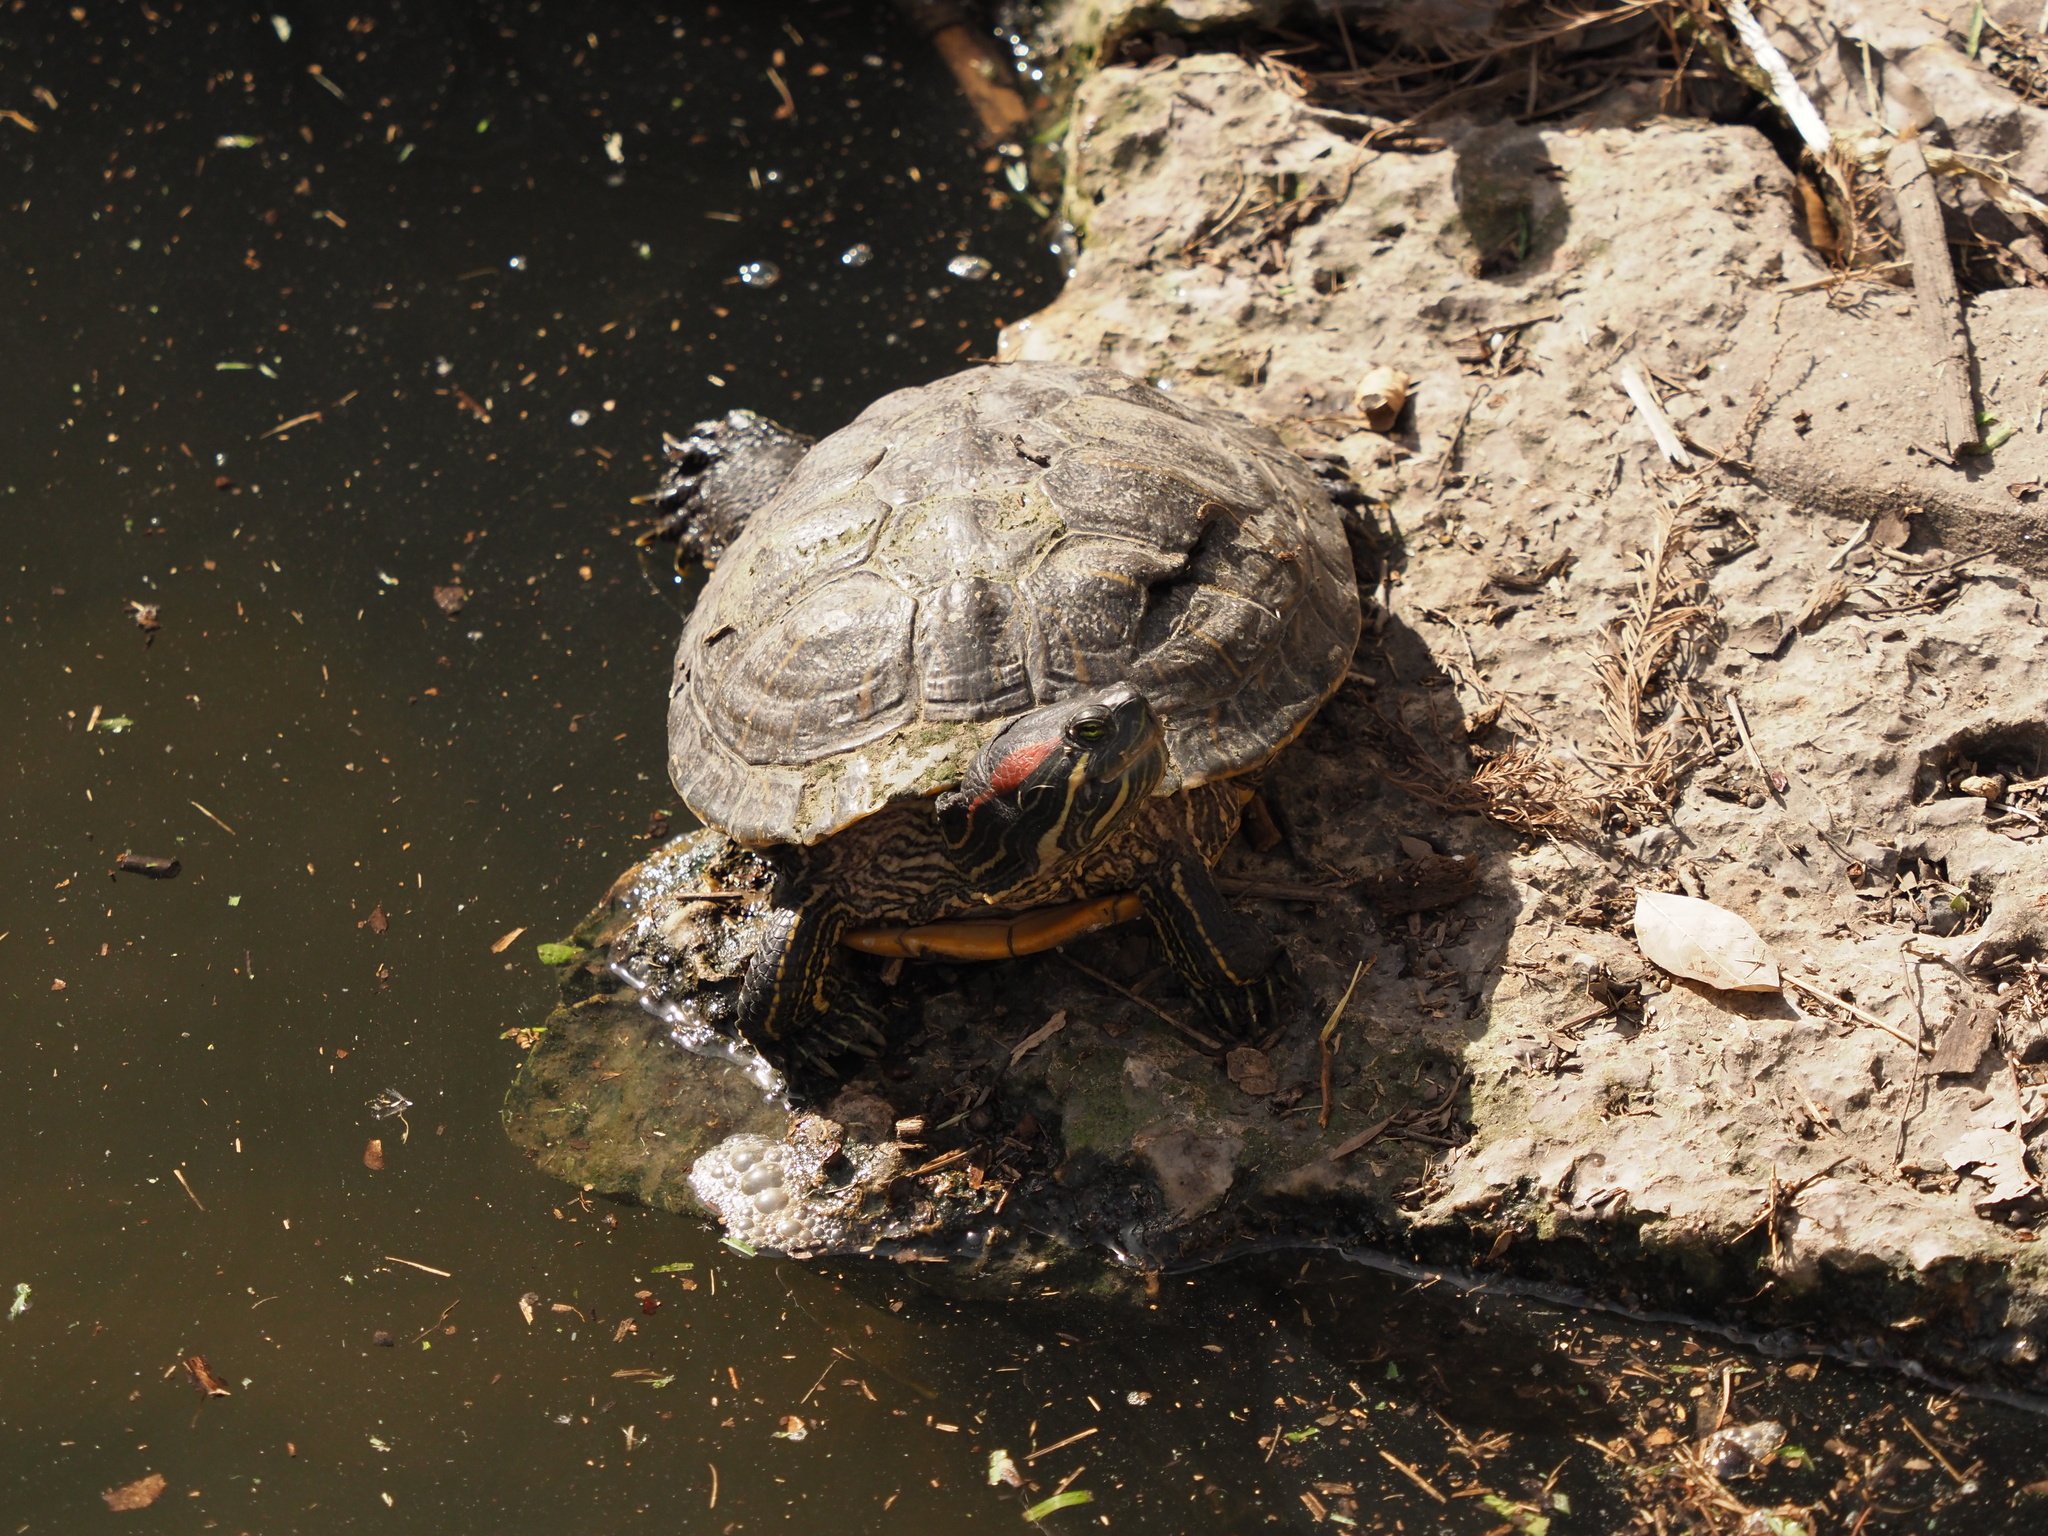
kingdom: Animalia
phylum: Chordata
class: Testudines
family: Emydidae
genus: Trachemys
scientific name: Trachemys scripta
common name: Slider
